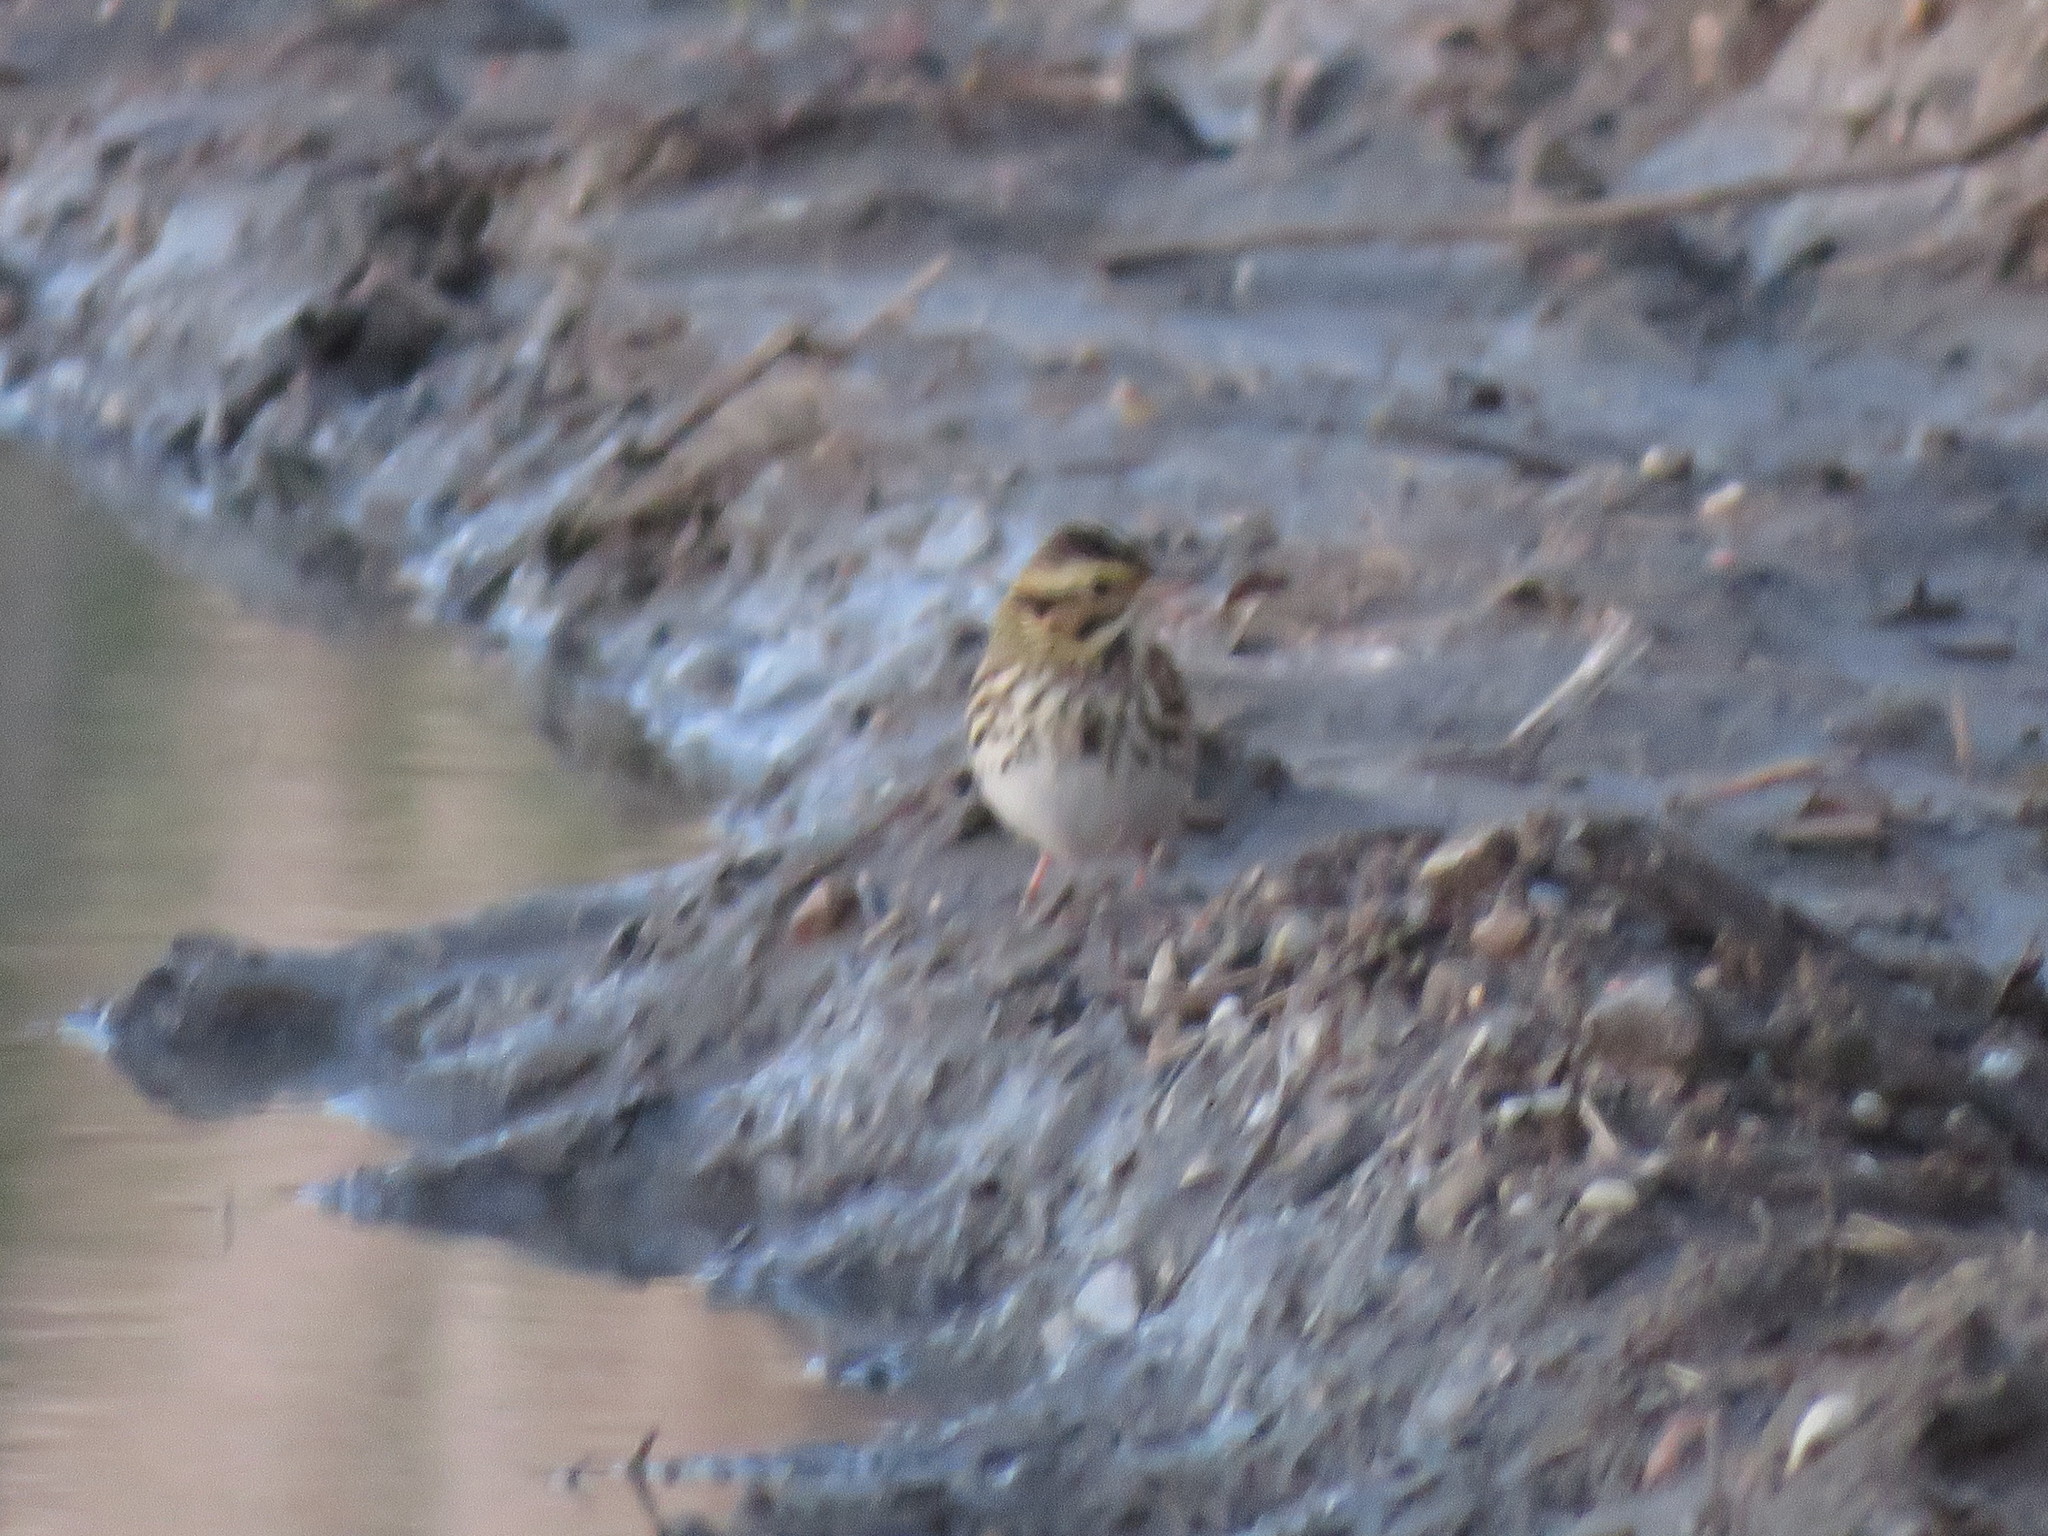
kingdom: Animalia
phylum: Chordata
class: Aves
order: Passeriformes
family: Passerellidae
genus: Passerculus
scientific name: Passerculus sandwichensis
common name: Savannah sparrow
